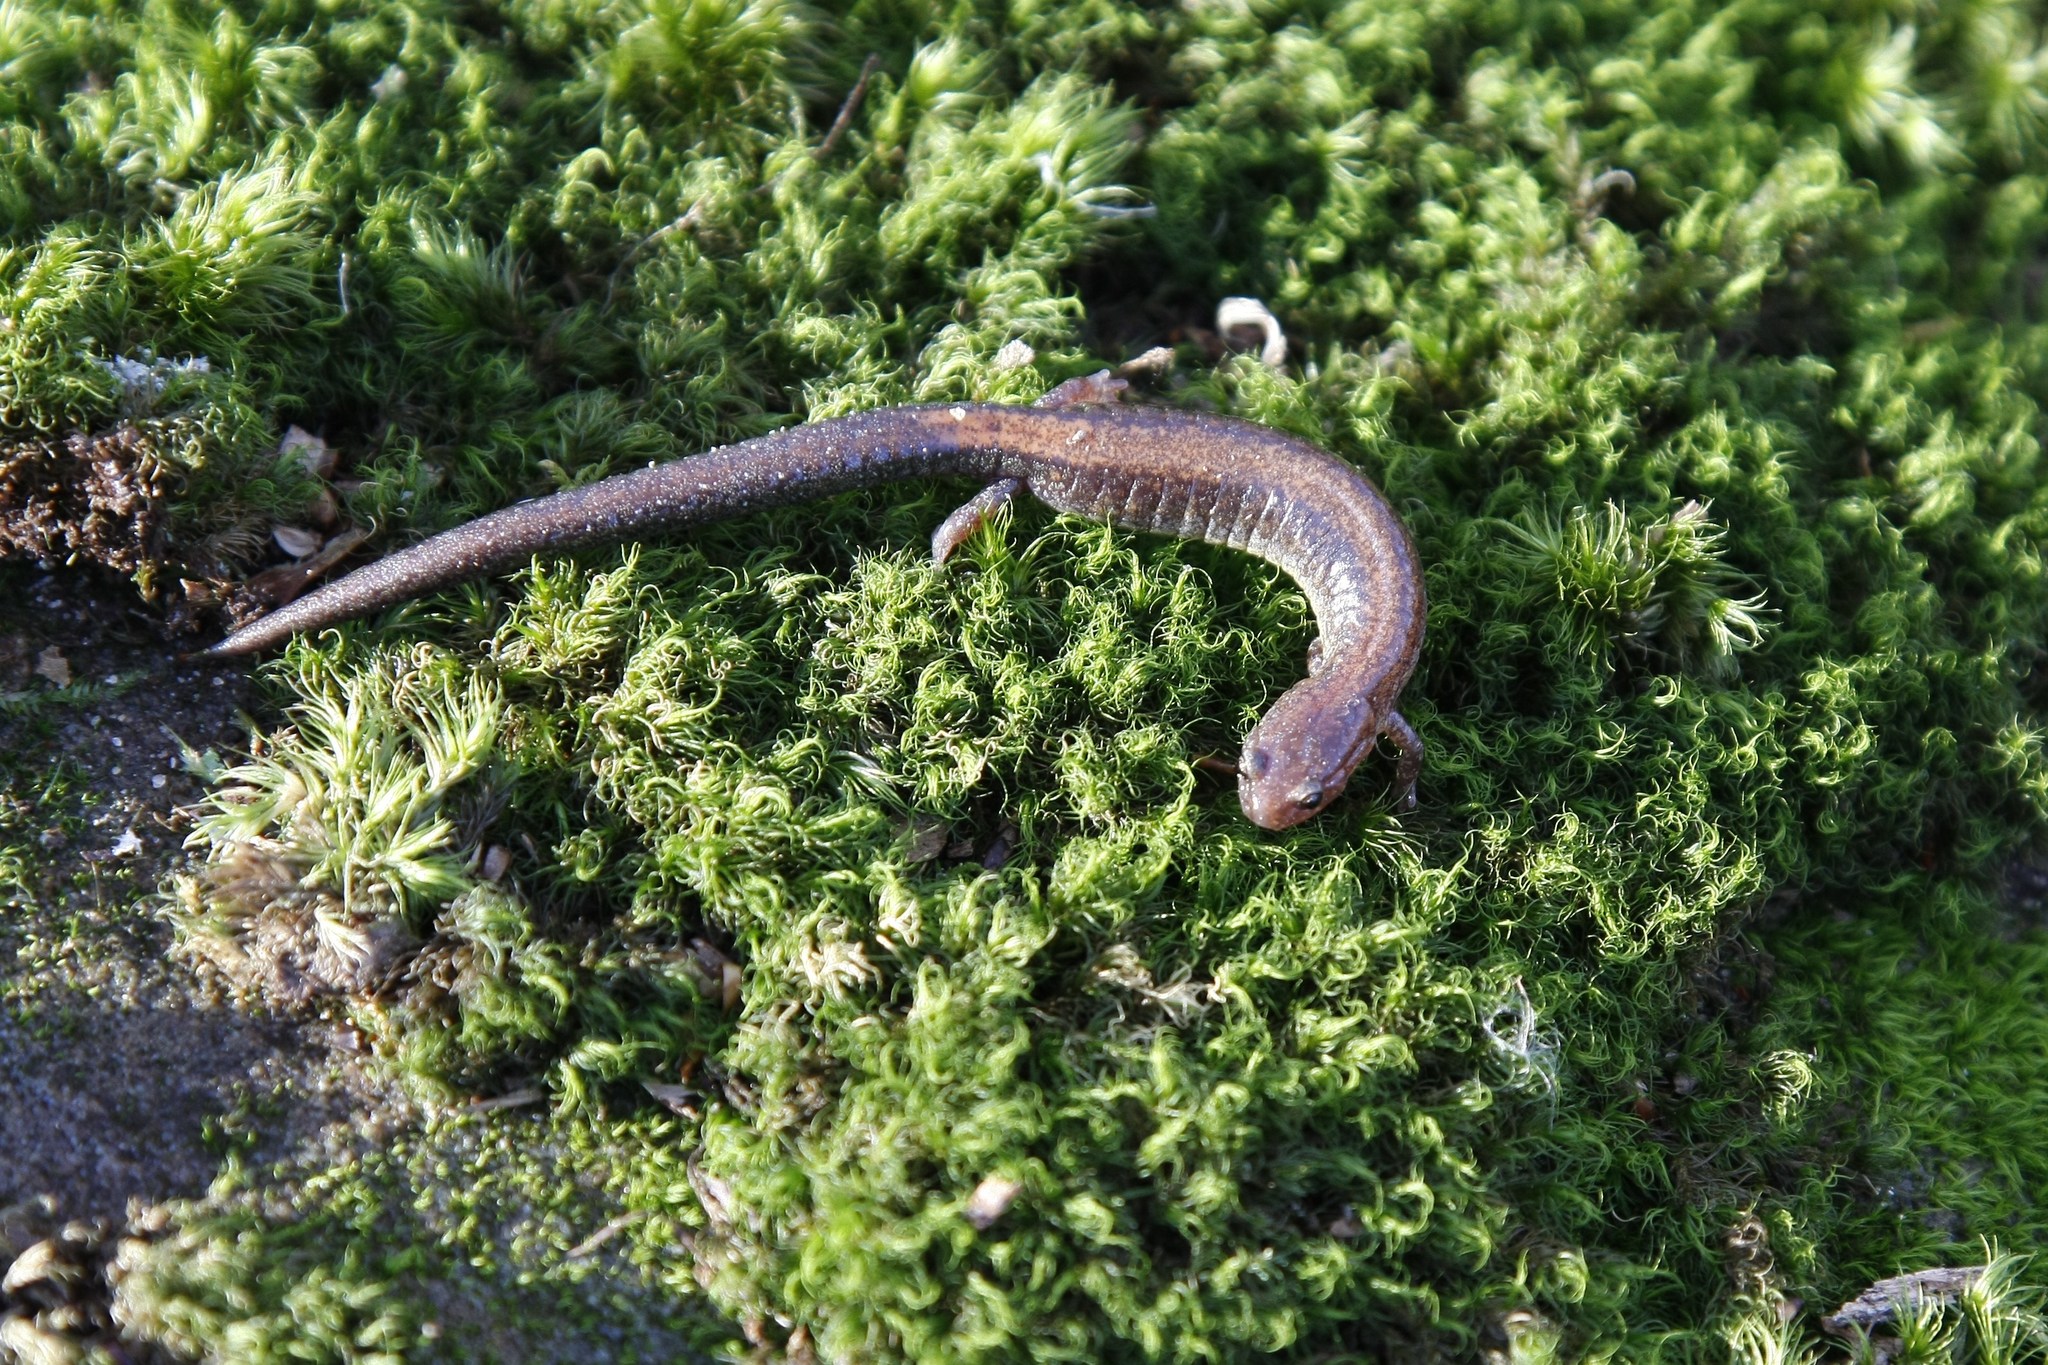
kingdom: Animalia
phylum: Chordata
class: Amphibia
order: Caudata
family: Plethodontidae
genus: Plethodon
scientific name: Plethodon cinereus
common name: Redback salamander
